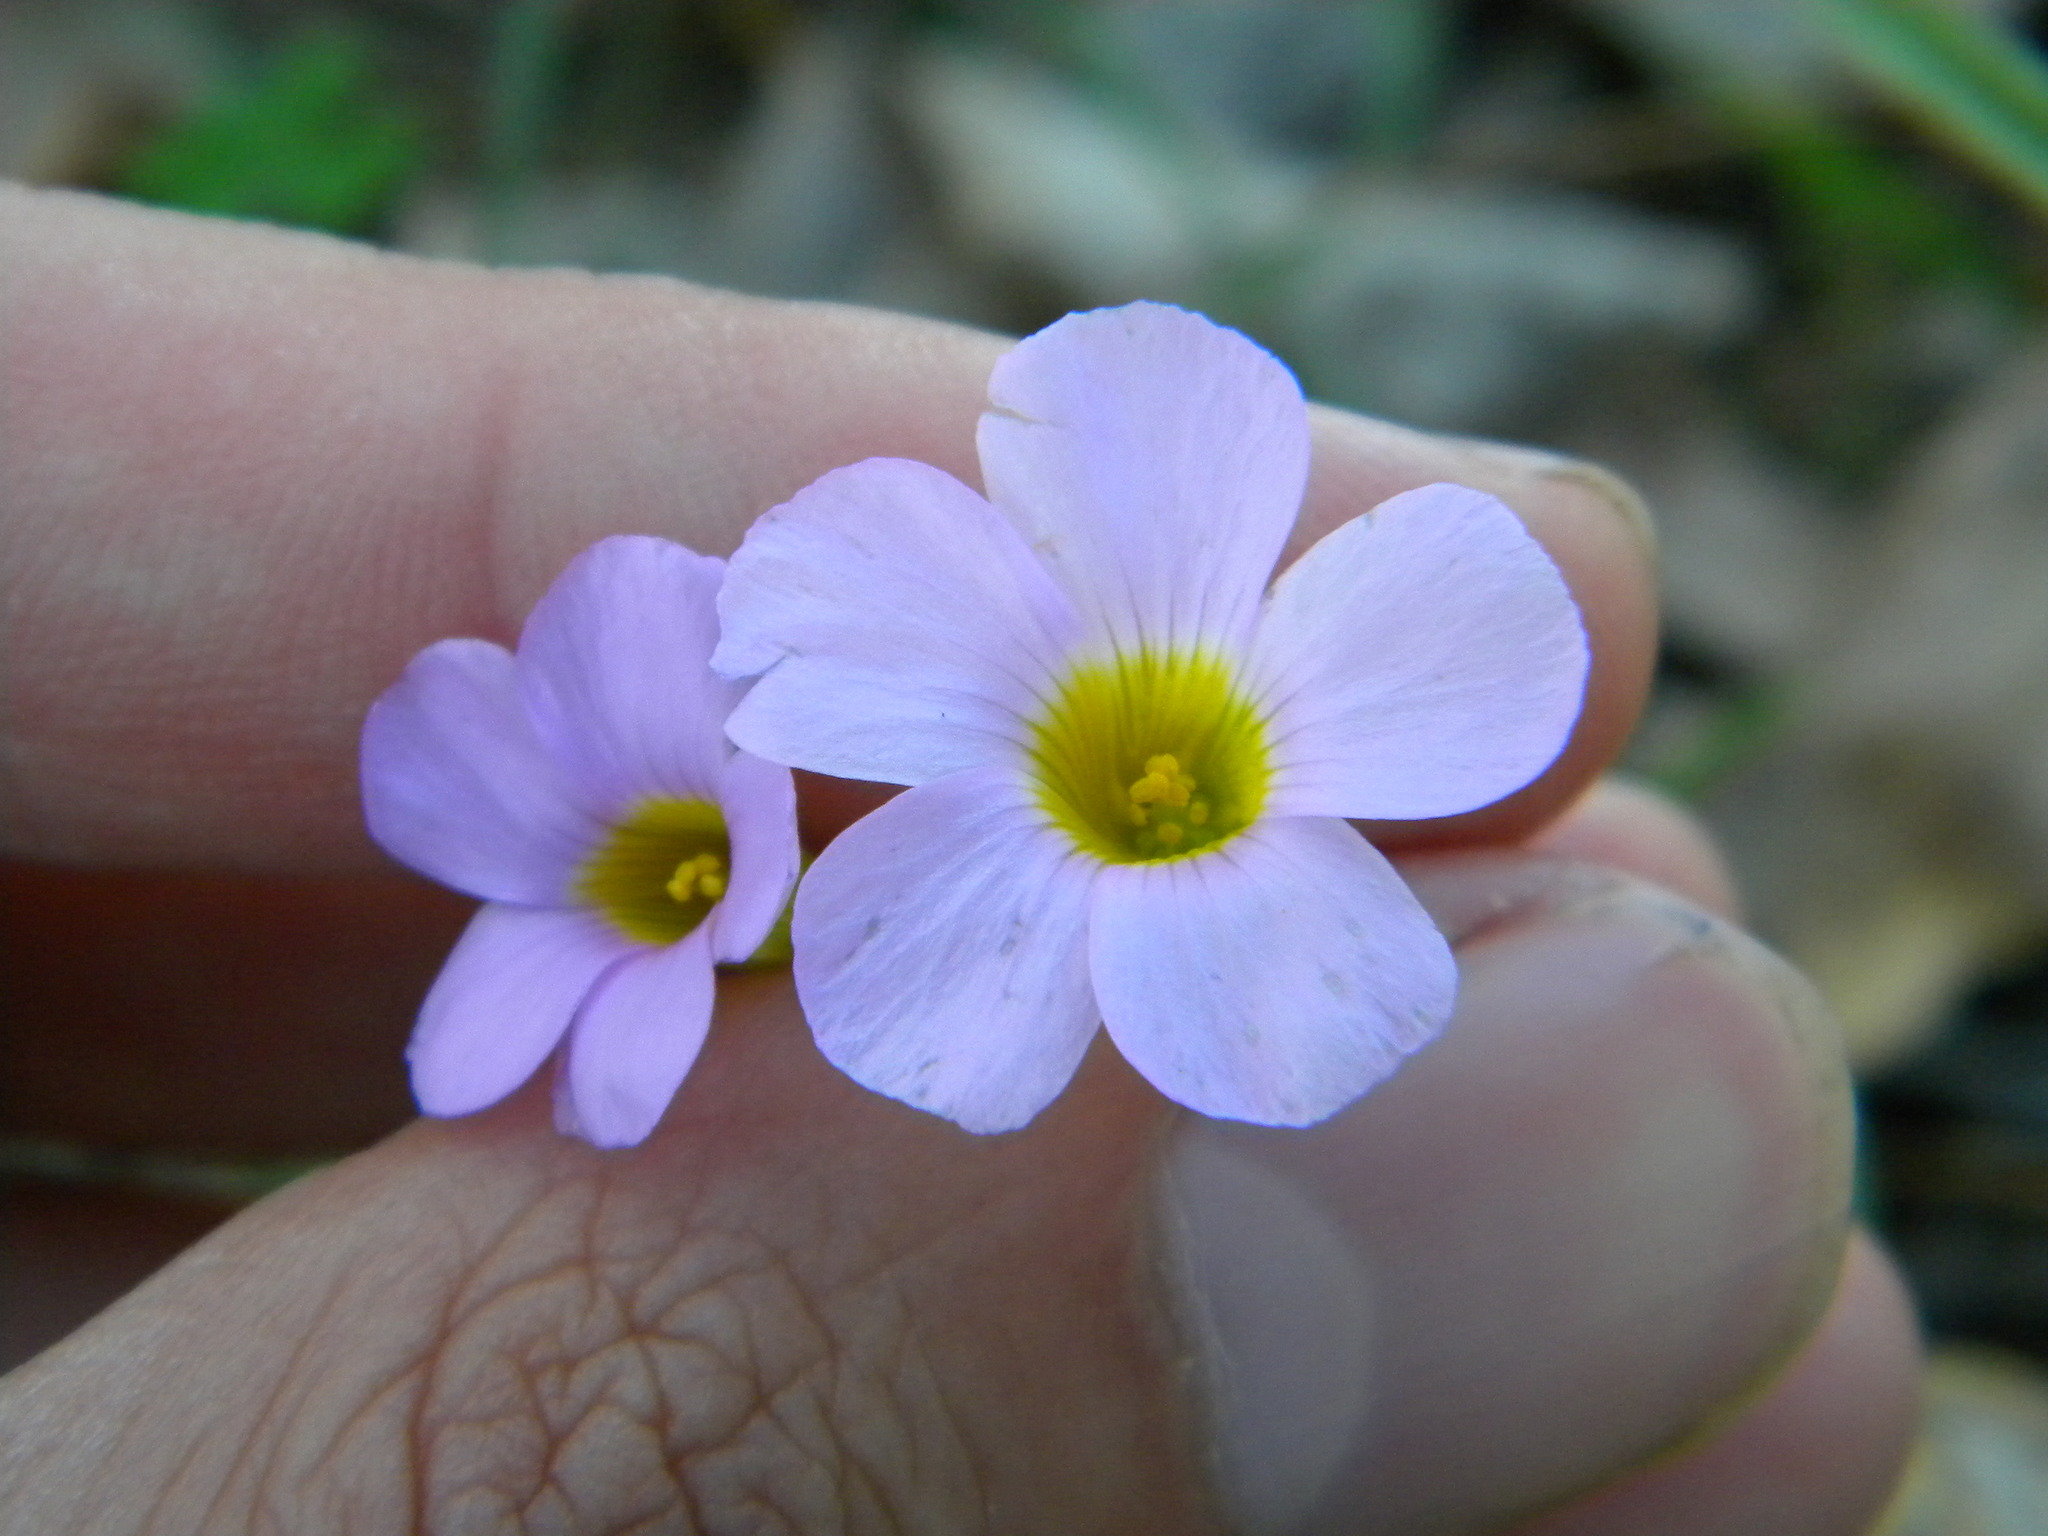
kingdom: Plantae
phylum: Tracheophyta
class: Magnoliopsida
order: Oxalidales
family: Oxalidaceae
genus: Oxalis
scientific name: Oxalis caprina
